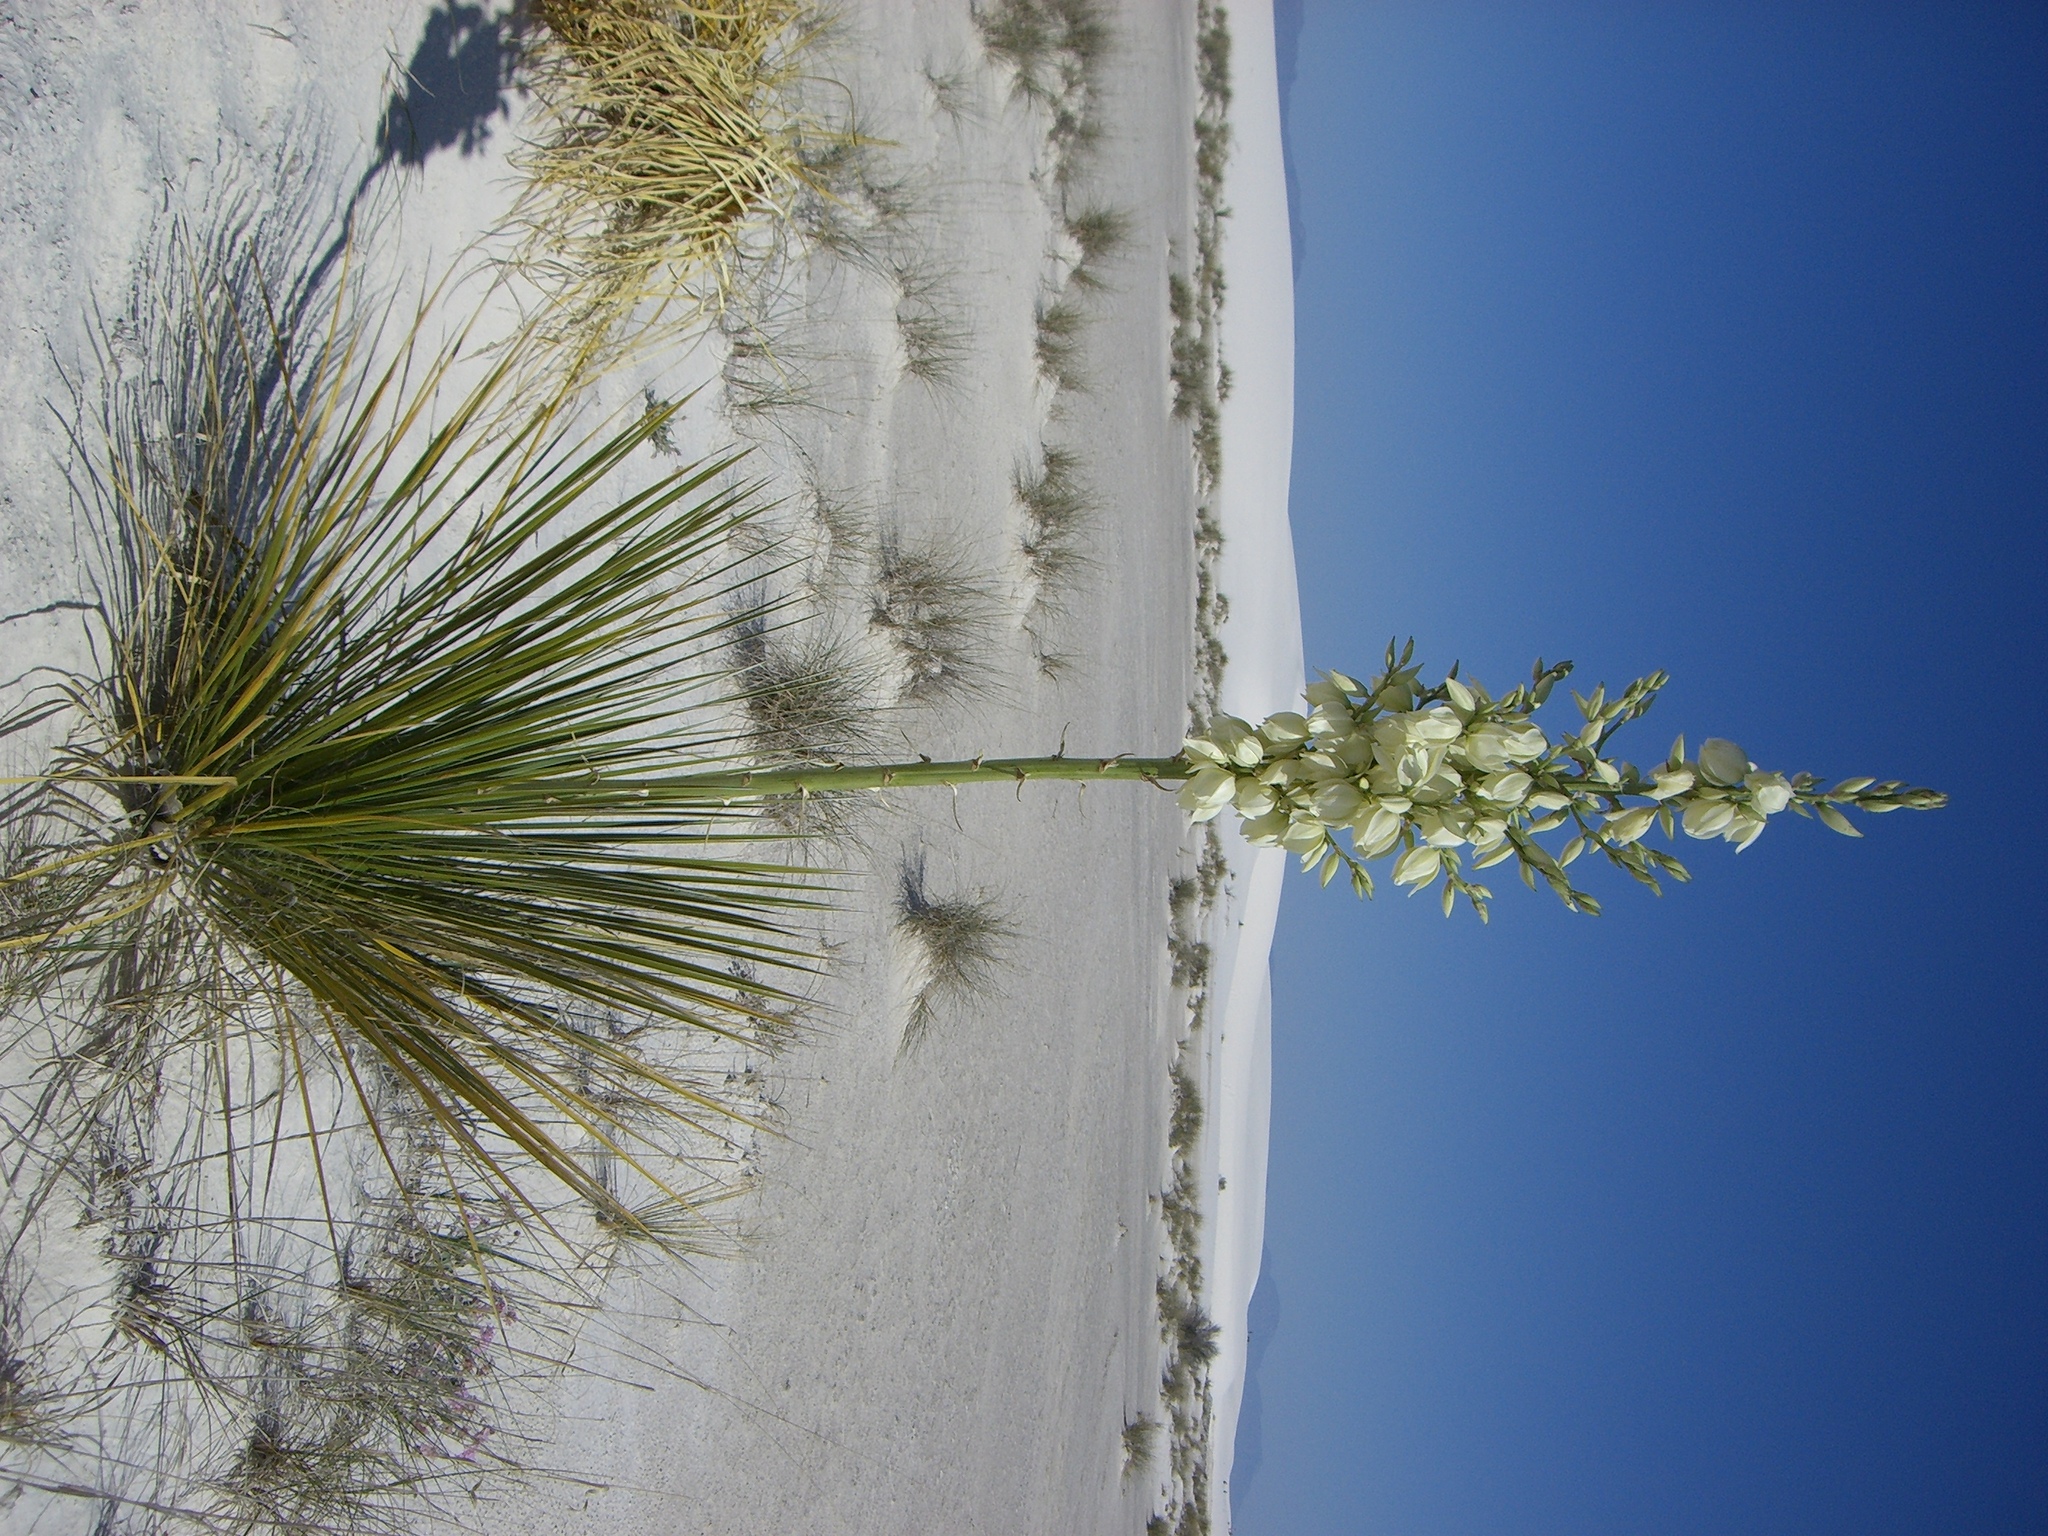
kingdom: Plantae
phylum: Tracheophyta
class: Liliopsida
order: Asparagales
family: Asparagaceae
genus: Yucca
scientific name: Yucca elata
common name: Palmella
